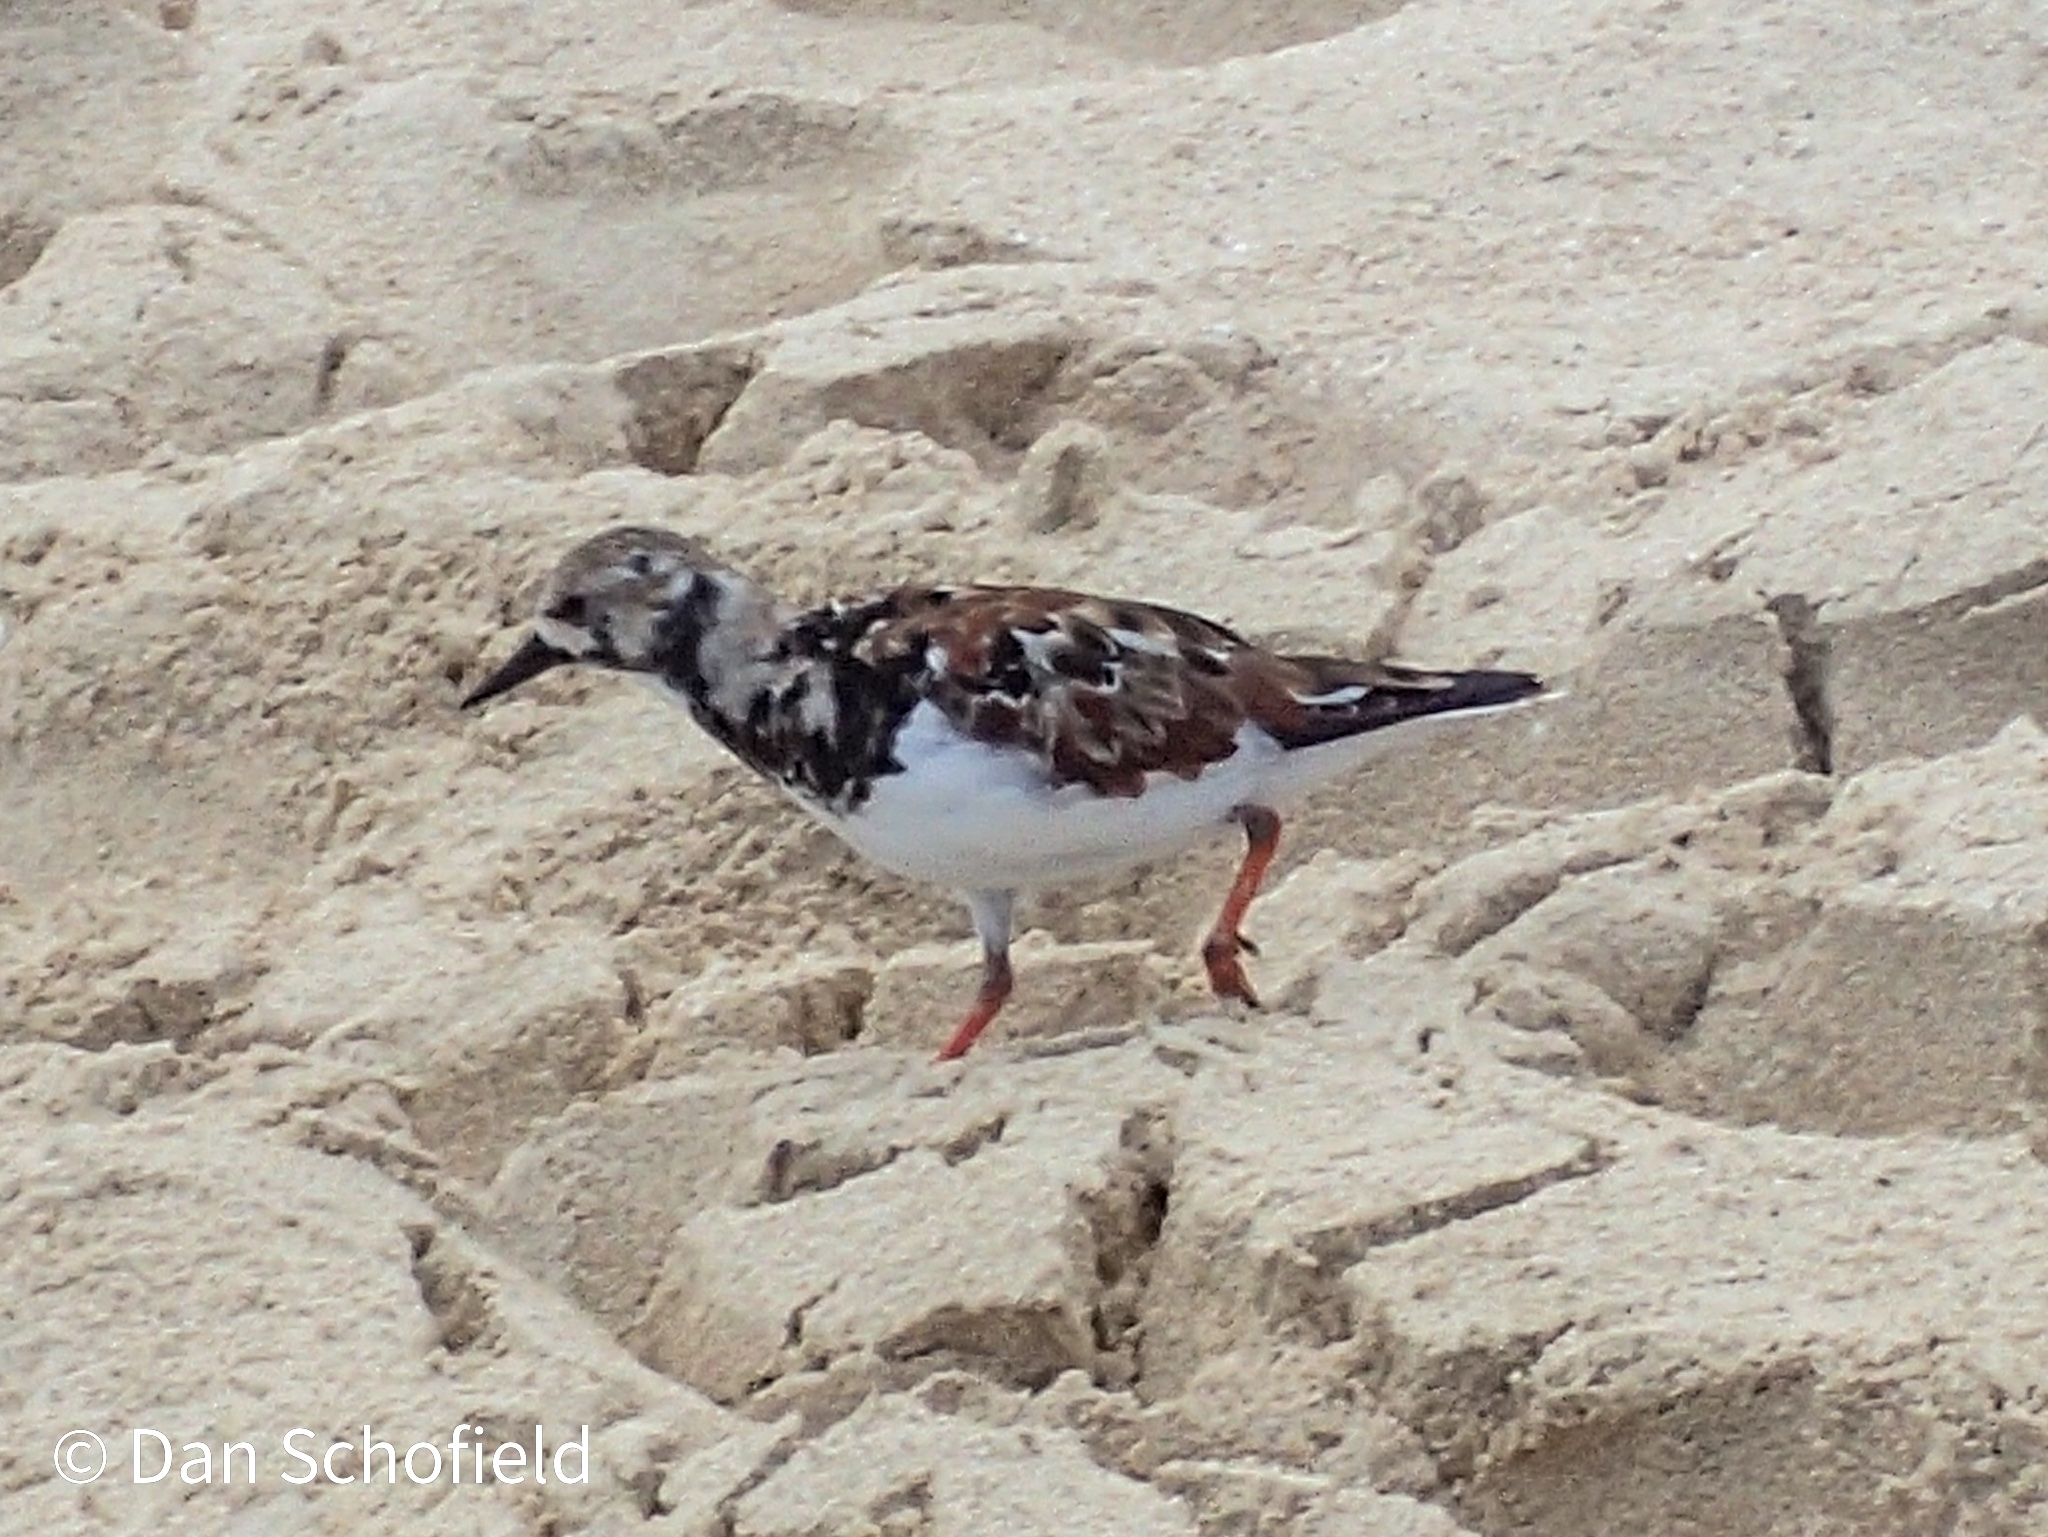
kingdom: Animalia
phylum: Chordata
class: Aves
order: Charadriiformes
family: Scolopacidae
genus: Arenaria
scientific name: Arenaria interpres
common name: Ruddy turnstone
